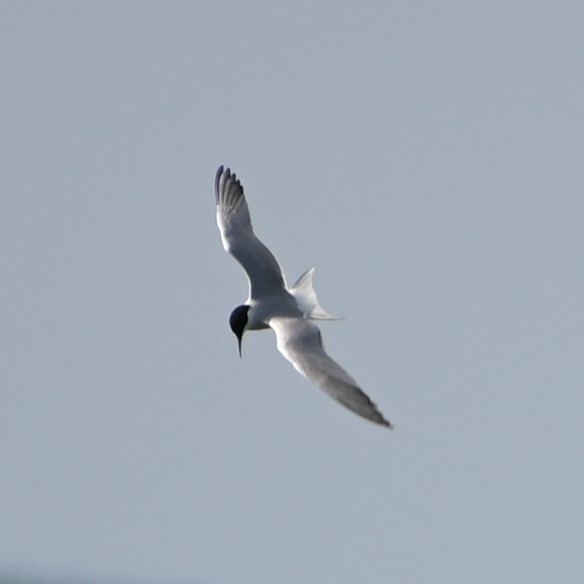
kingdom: Animalia
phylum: Chordata
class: Aves
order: Charadriiformes
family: Laridae
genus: Sterna
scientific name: Sterna hirundo
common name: Common tern
